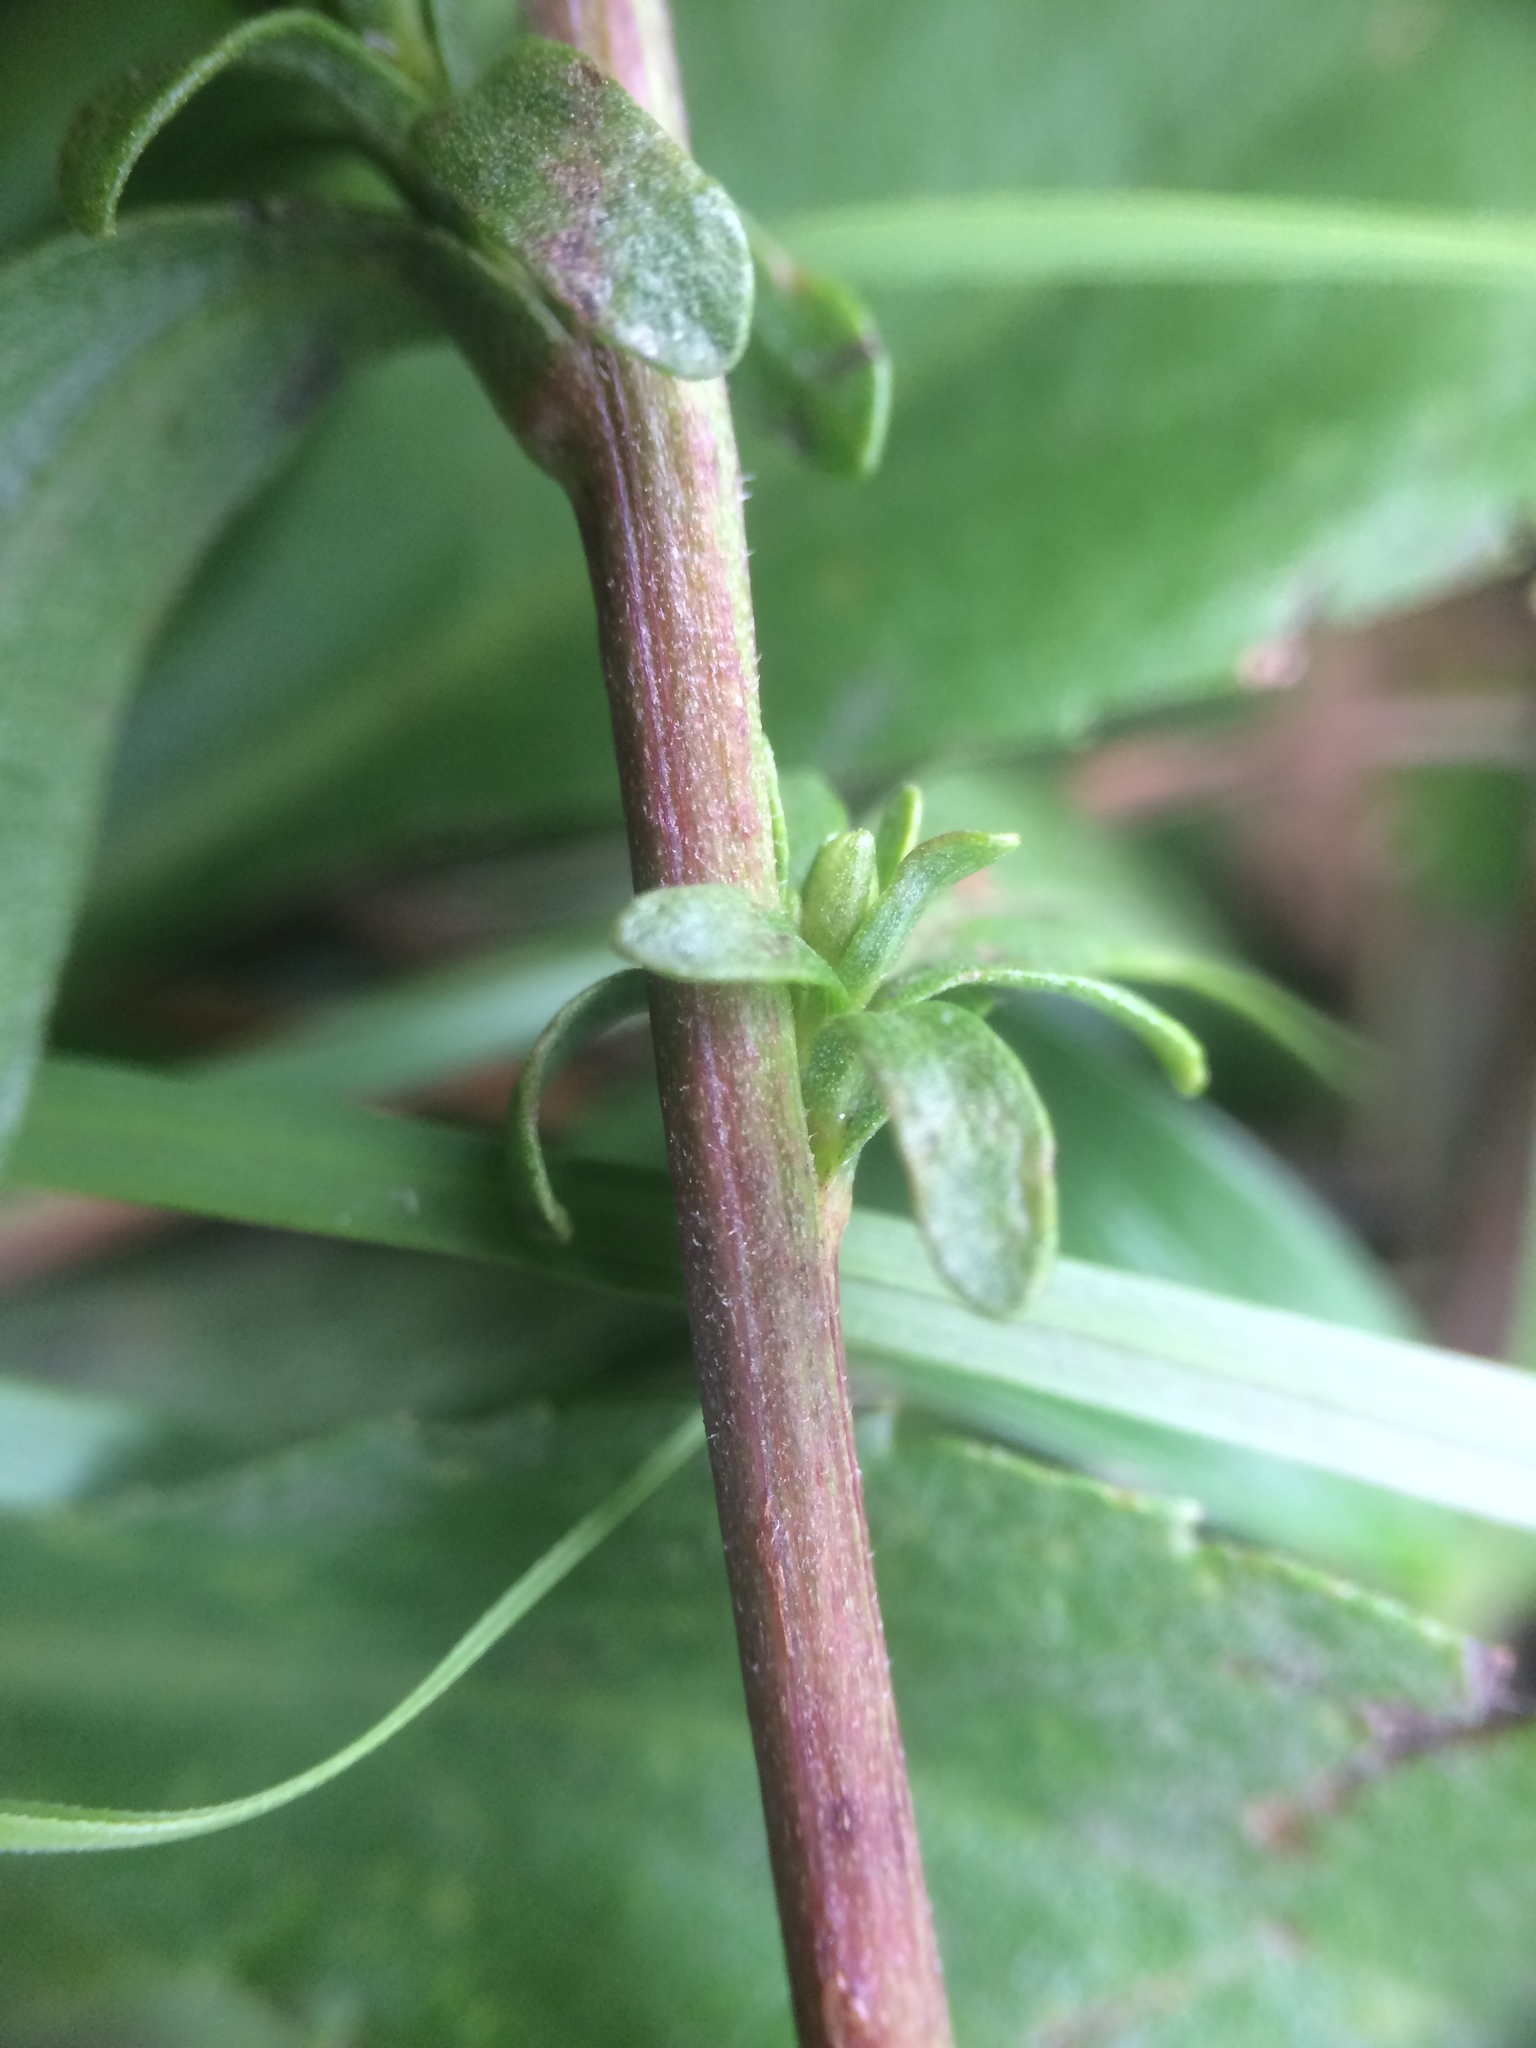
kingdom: Plantae
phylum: Tracheophyta
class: Magnoliopsida
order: Asterales
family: Asteraceae
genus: Solidago
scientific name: Solidago randii
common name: Rand's goldenrod
